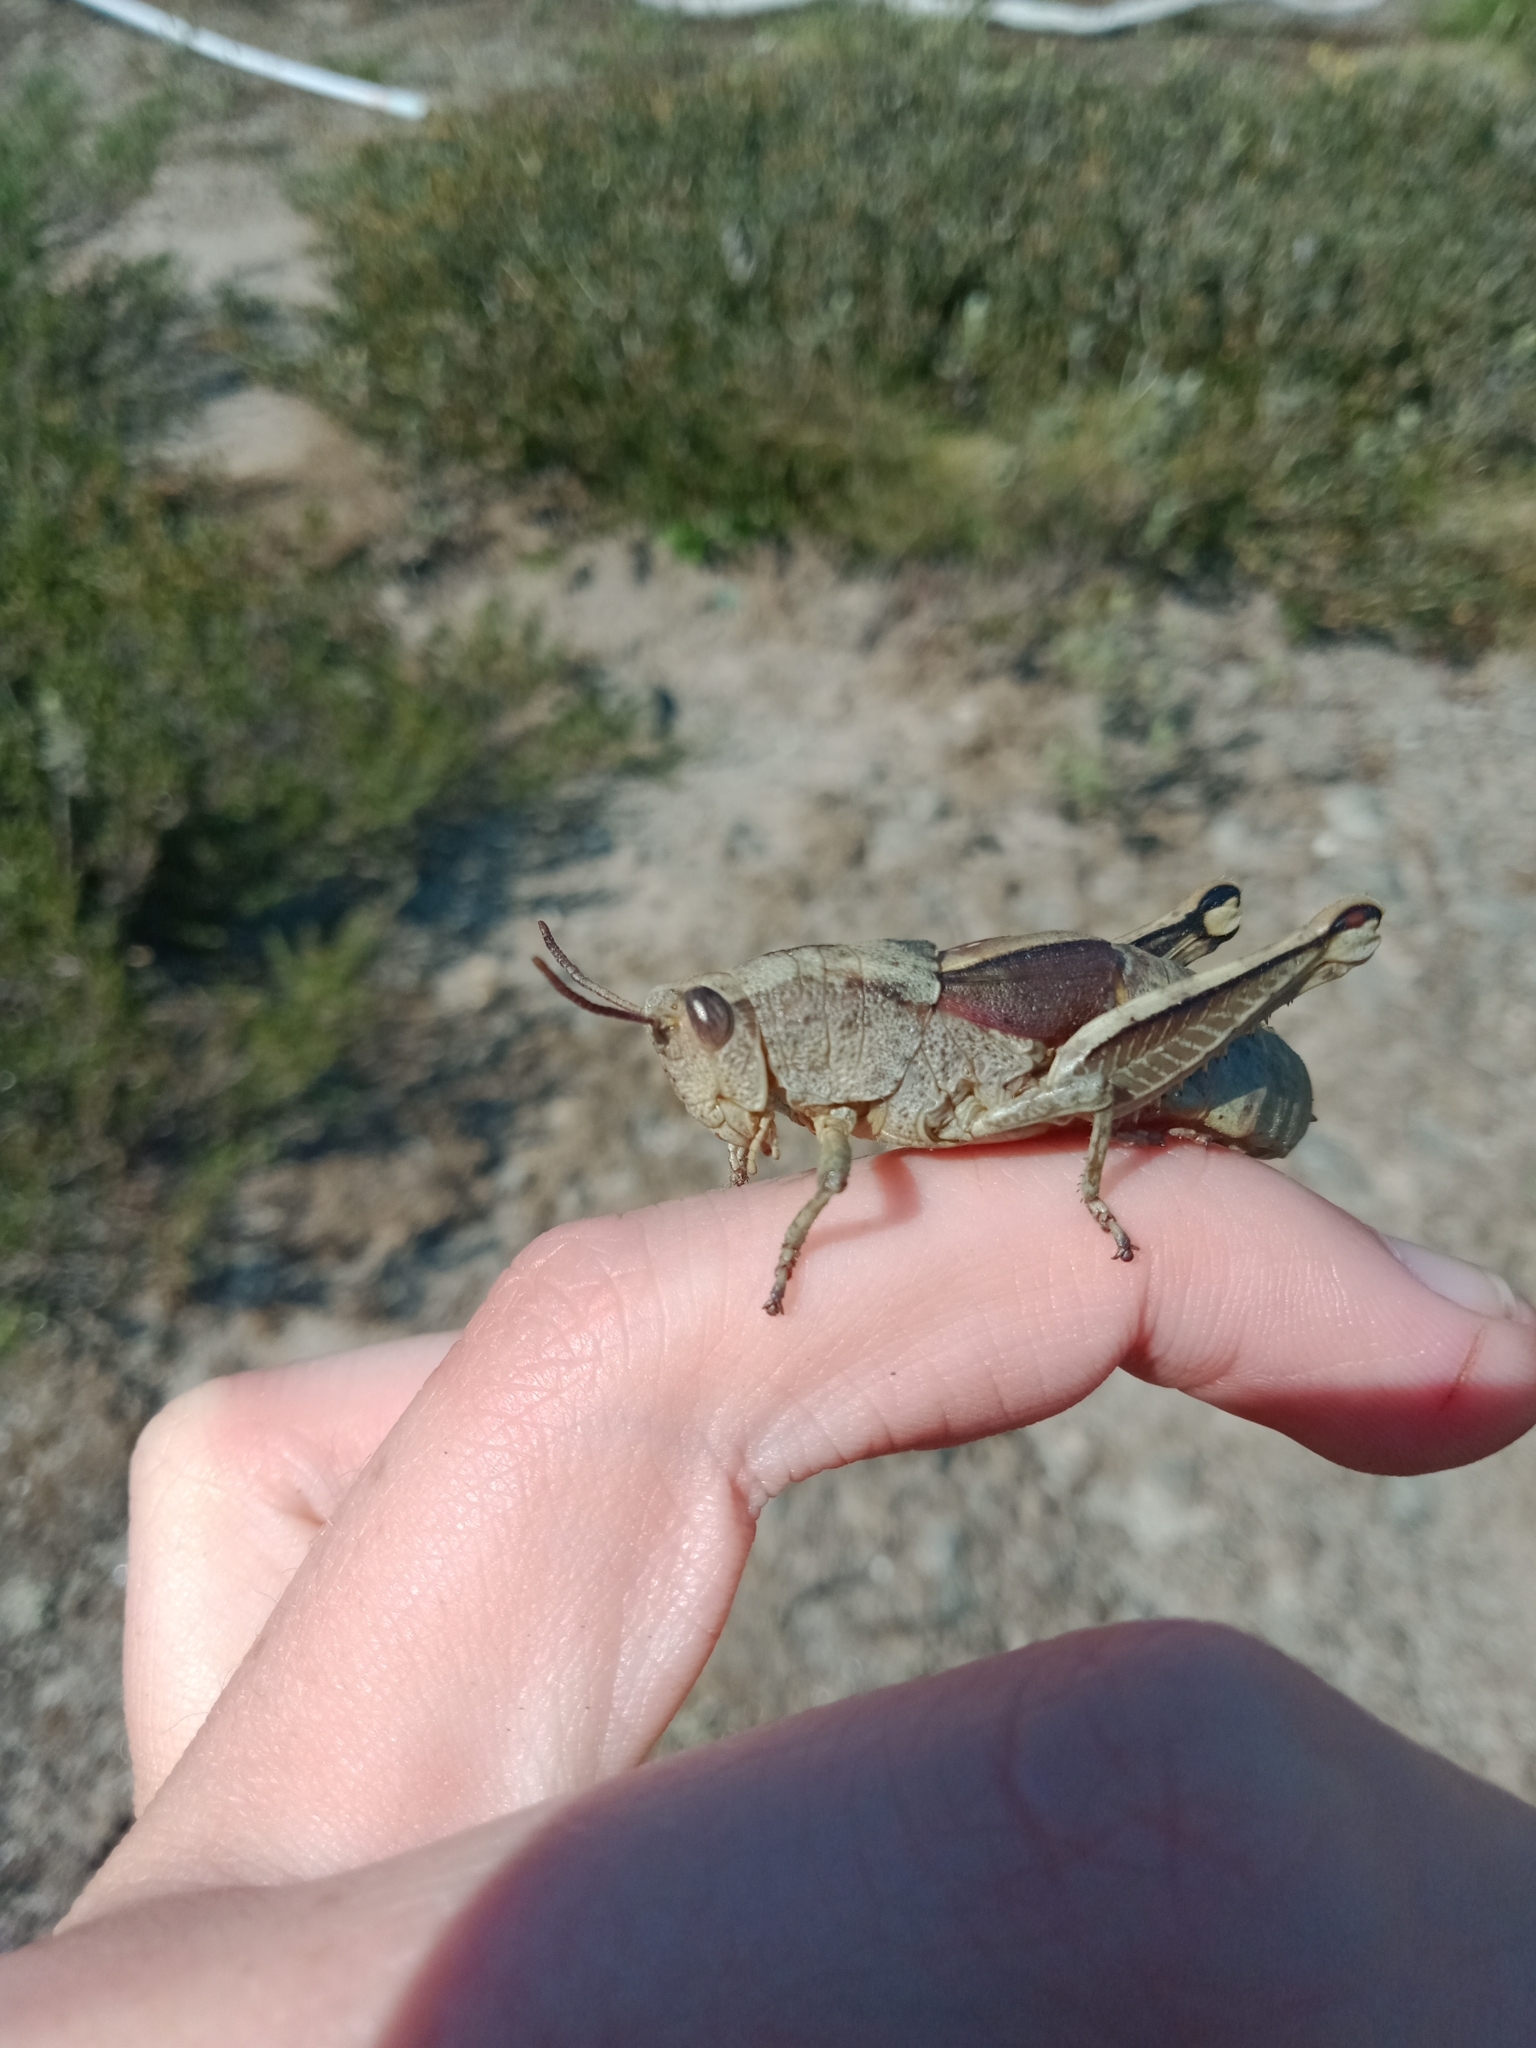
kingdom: Animalia
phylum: Arthropoda
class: Insecta
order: Orthoptera
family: Acrididae
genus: Percassa
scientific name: Percassa rugifrons
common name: Mountain grasshopper
